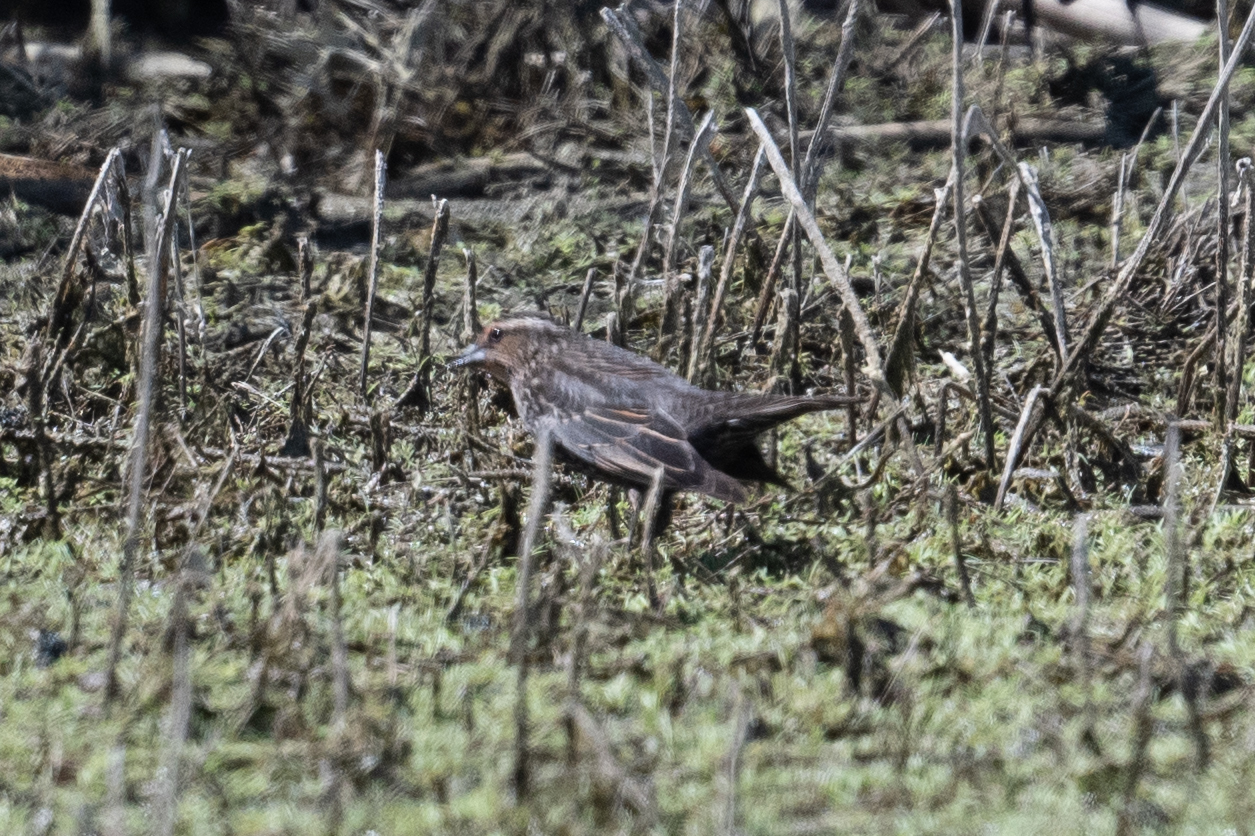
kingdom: Animalia
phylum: Chordata
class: Aves
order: Passeriformes
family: Icteridae
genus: Agelaius
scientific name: Agelaius phoeniceus
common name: Red-winged blackbird
